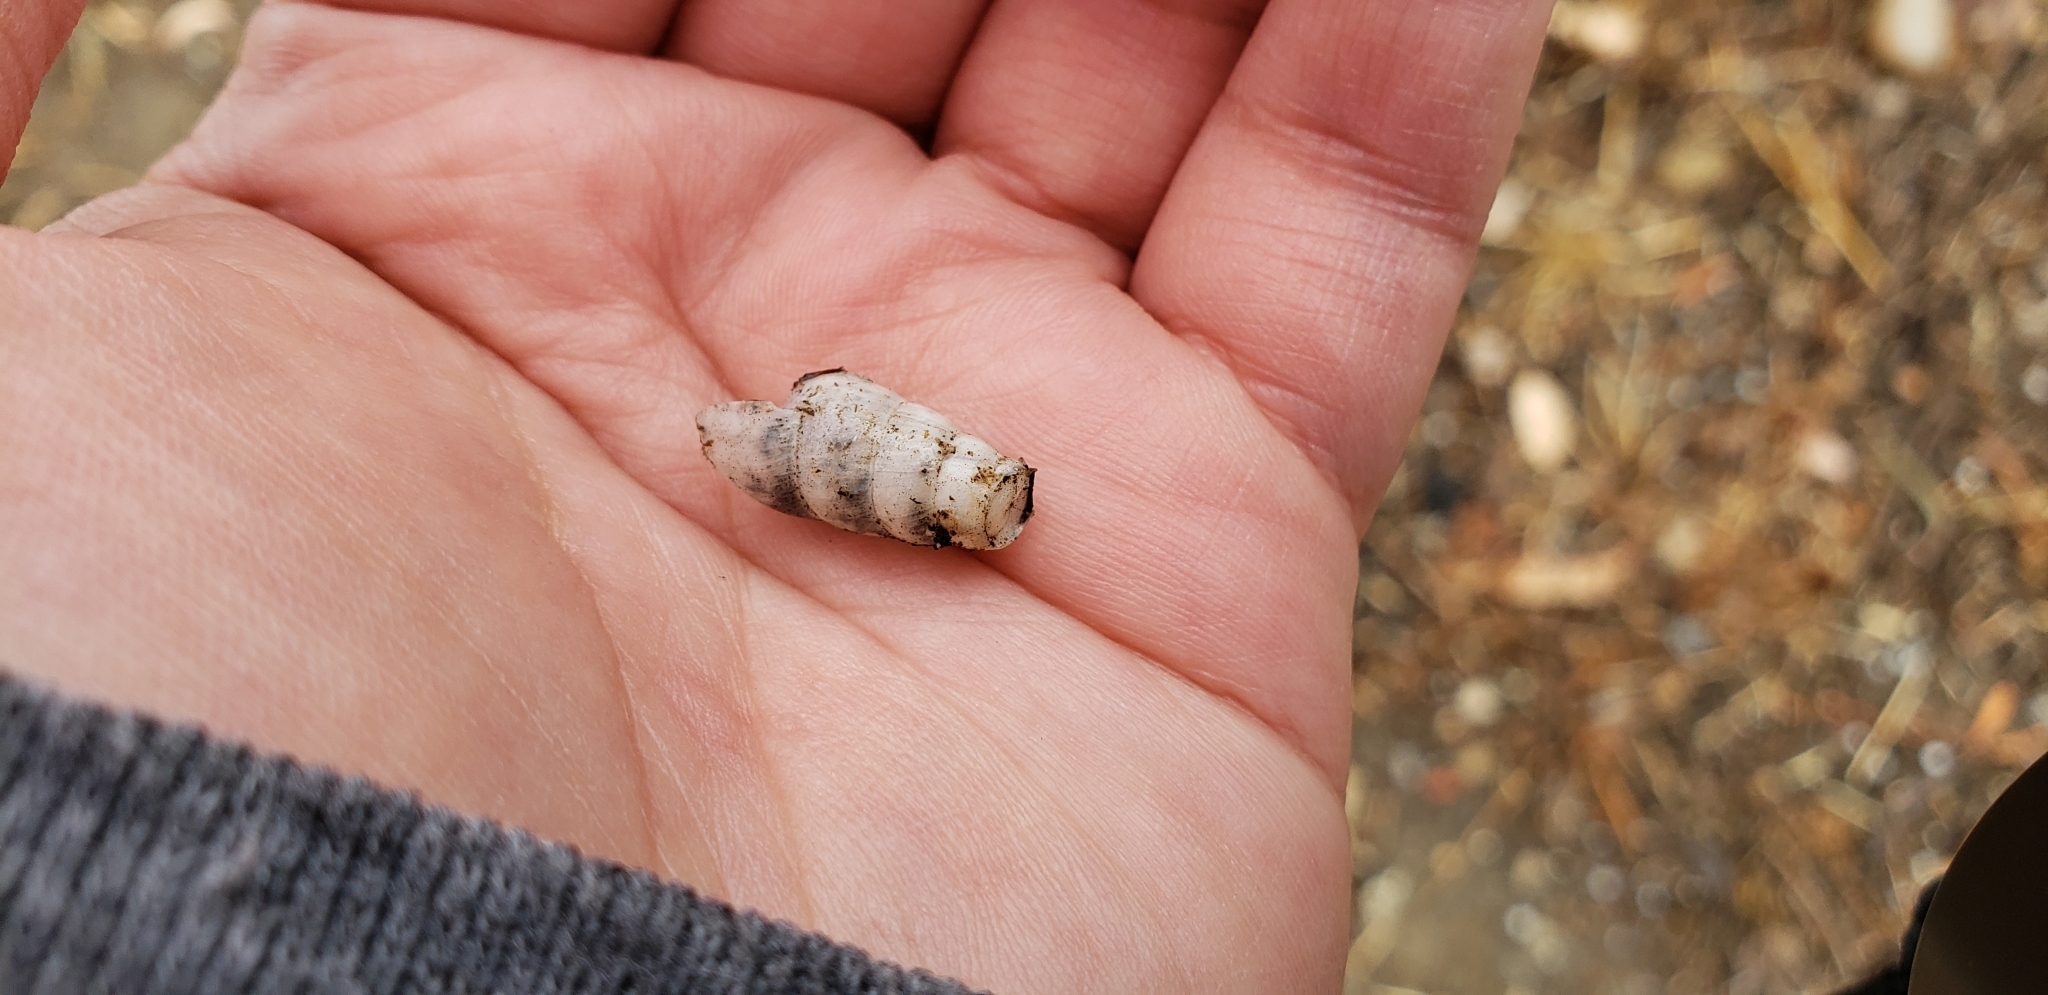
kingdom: Animalia
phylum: Mollusca
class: Gastropoda
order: Stylommatophora
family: Achatinidae
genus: Rumina
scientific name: Rumina decollata
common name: Decollate snail
